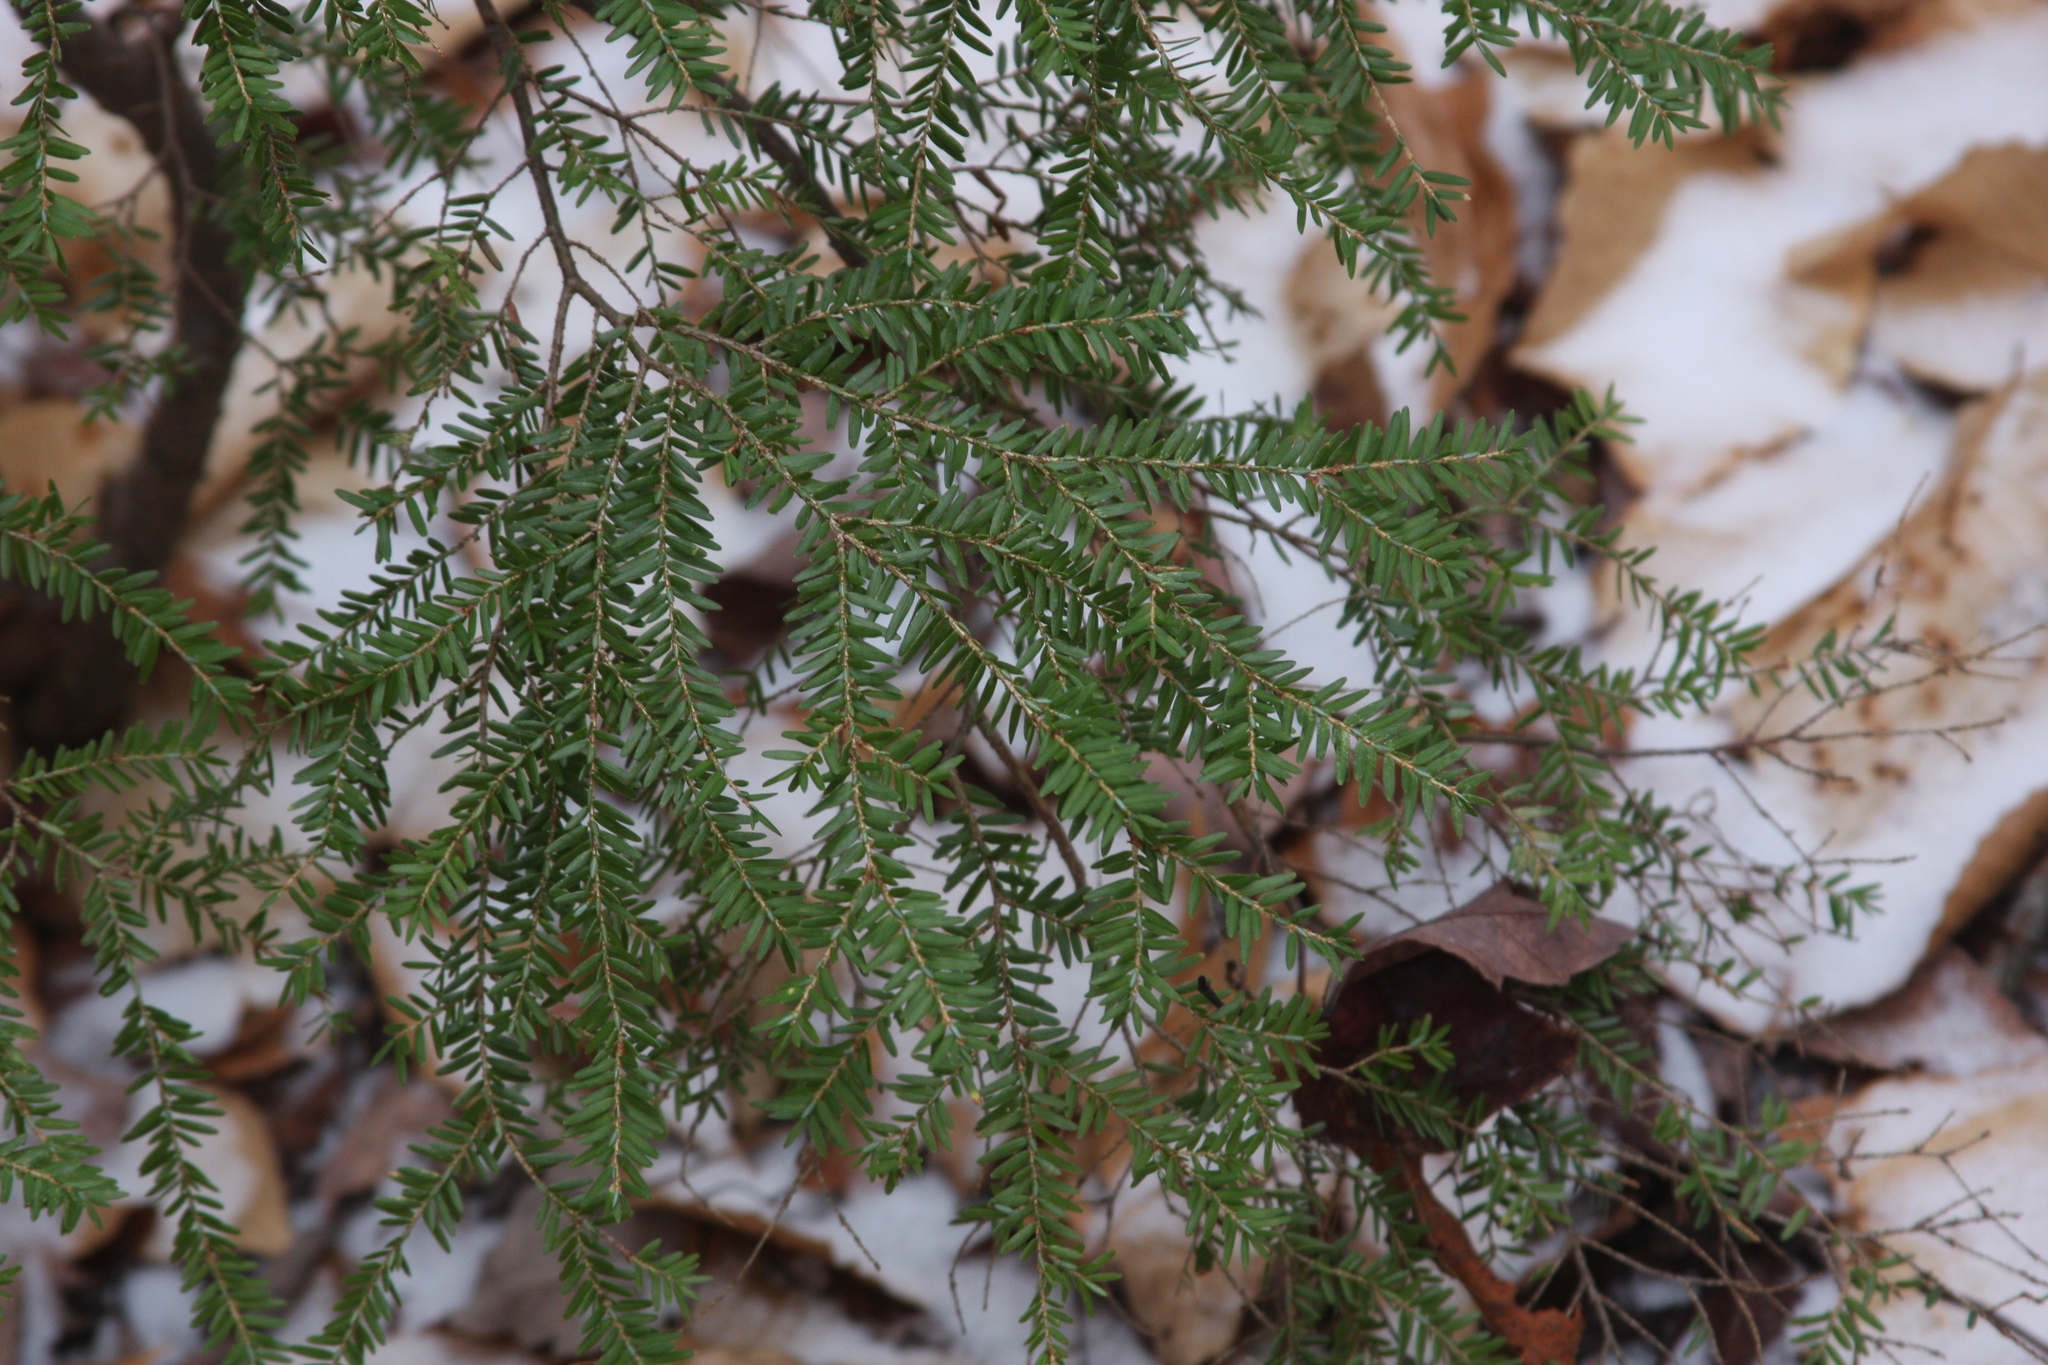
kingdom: Plantae
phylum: Tracheophyta
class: Pinopsida
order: Pinales
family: Pinaceae
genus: Tsuga
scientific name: Tsuga canadensis
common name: Eastern hemlock
